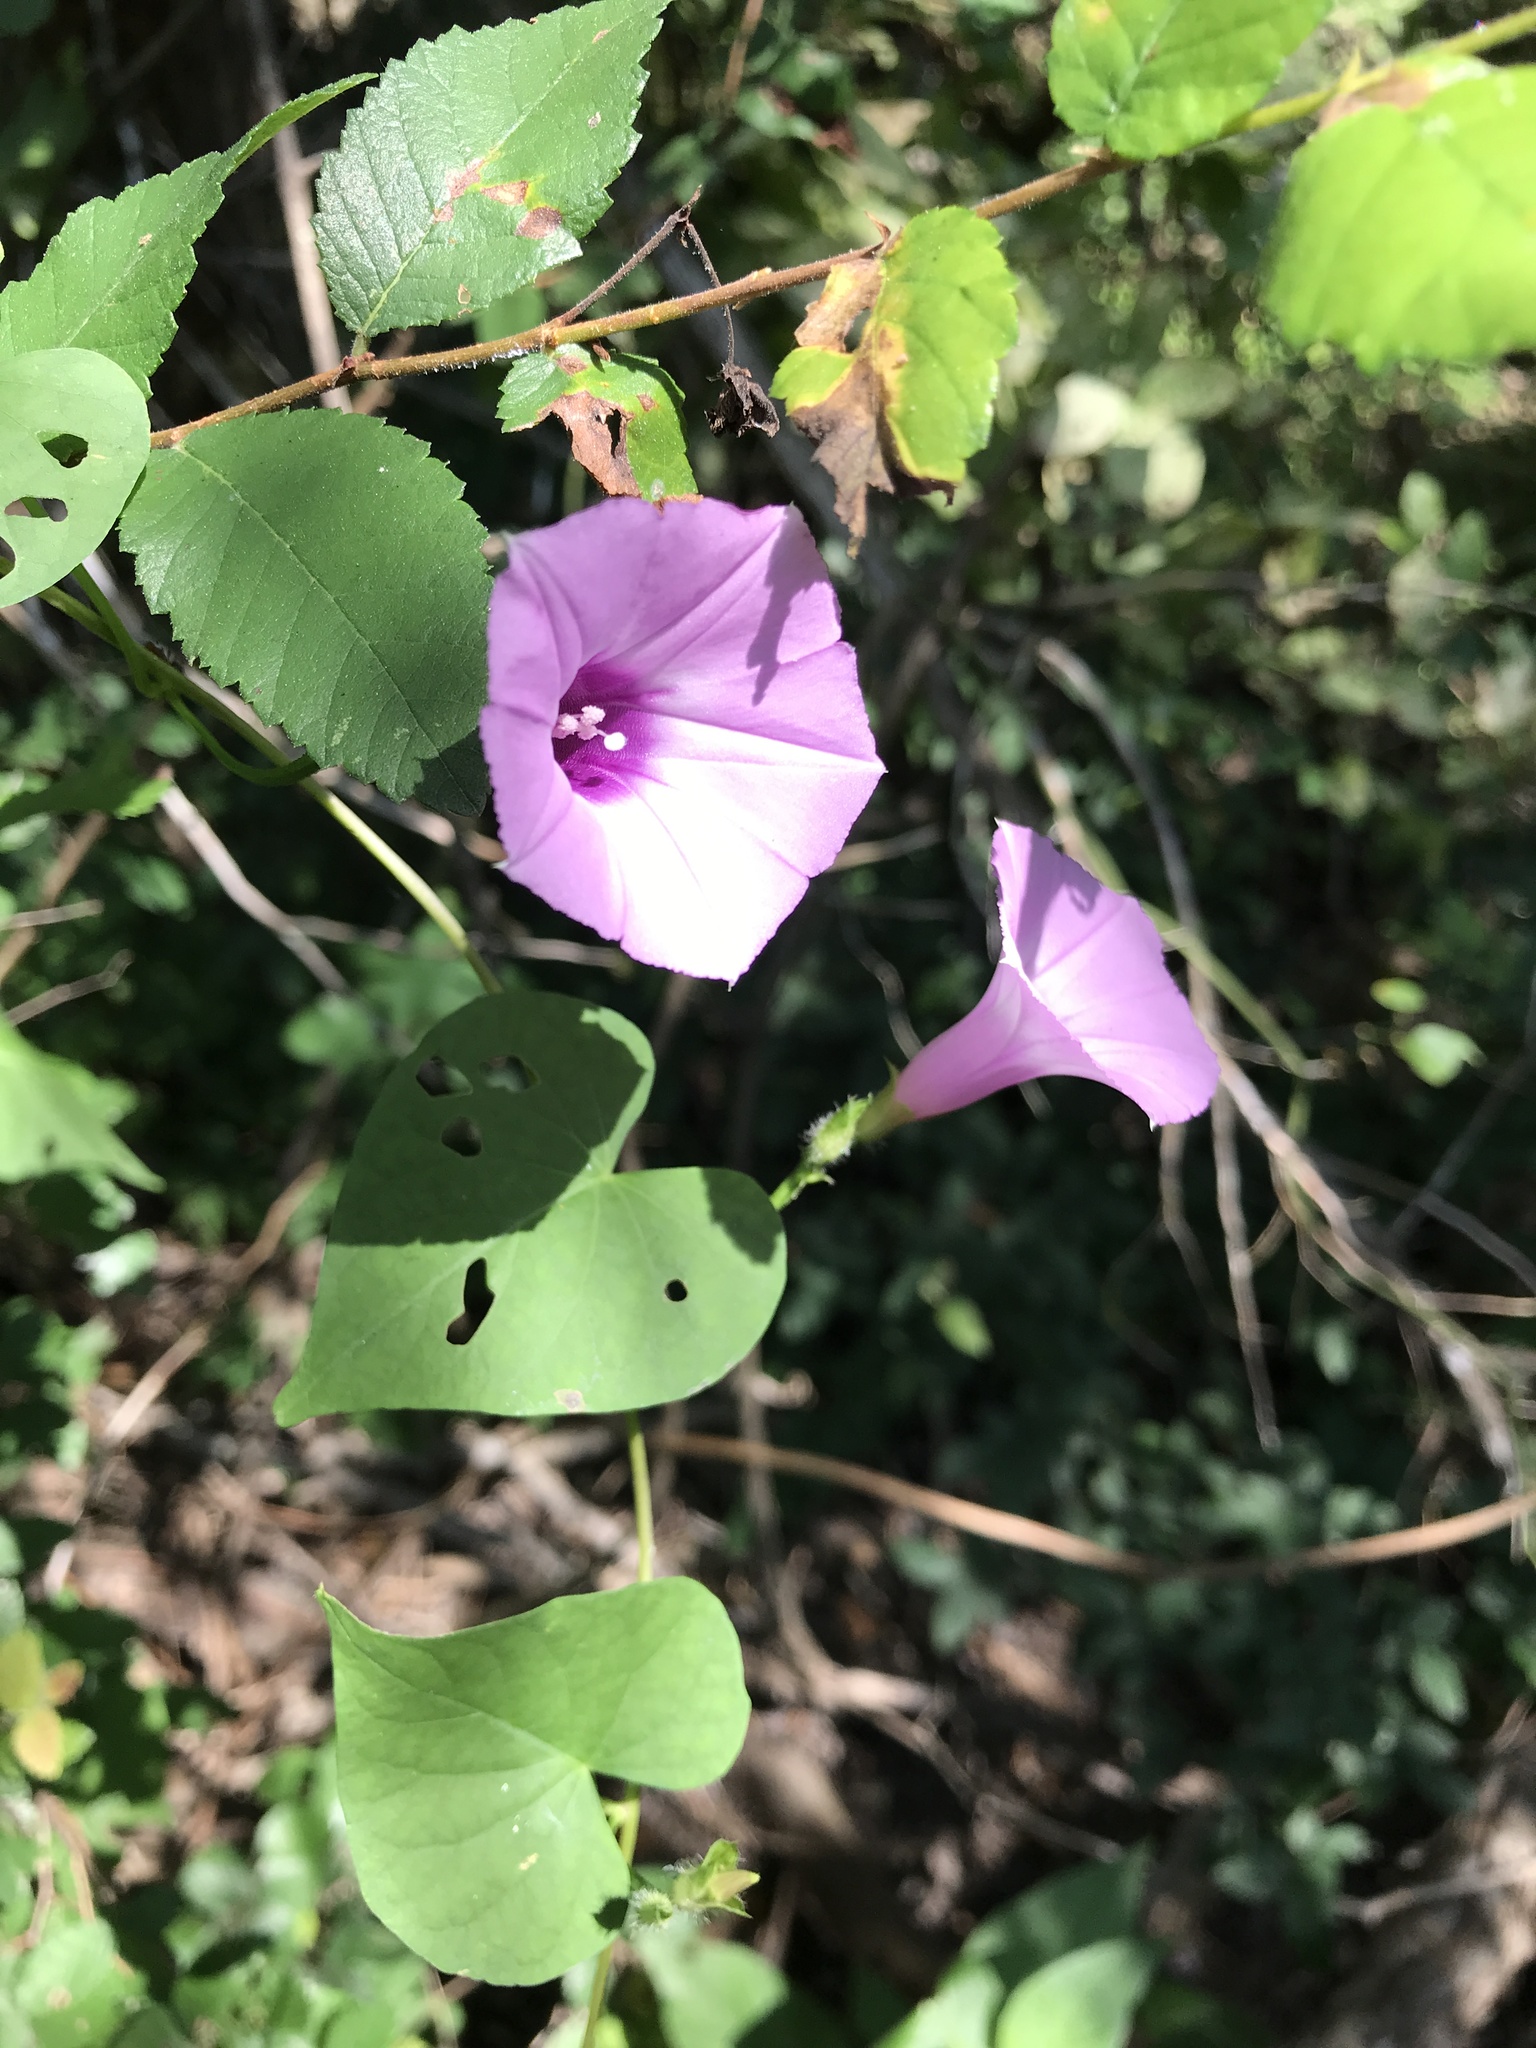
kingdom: Plantae
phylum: Tracheophyta
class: Magnoliopsida
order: Solanales
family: Convolvulaceae
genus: Ipomoea
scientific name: Ipomoea cordatotriloba
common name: Cotton morning glory
